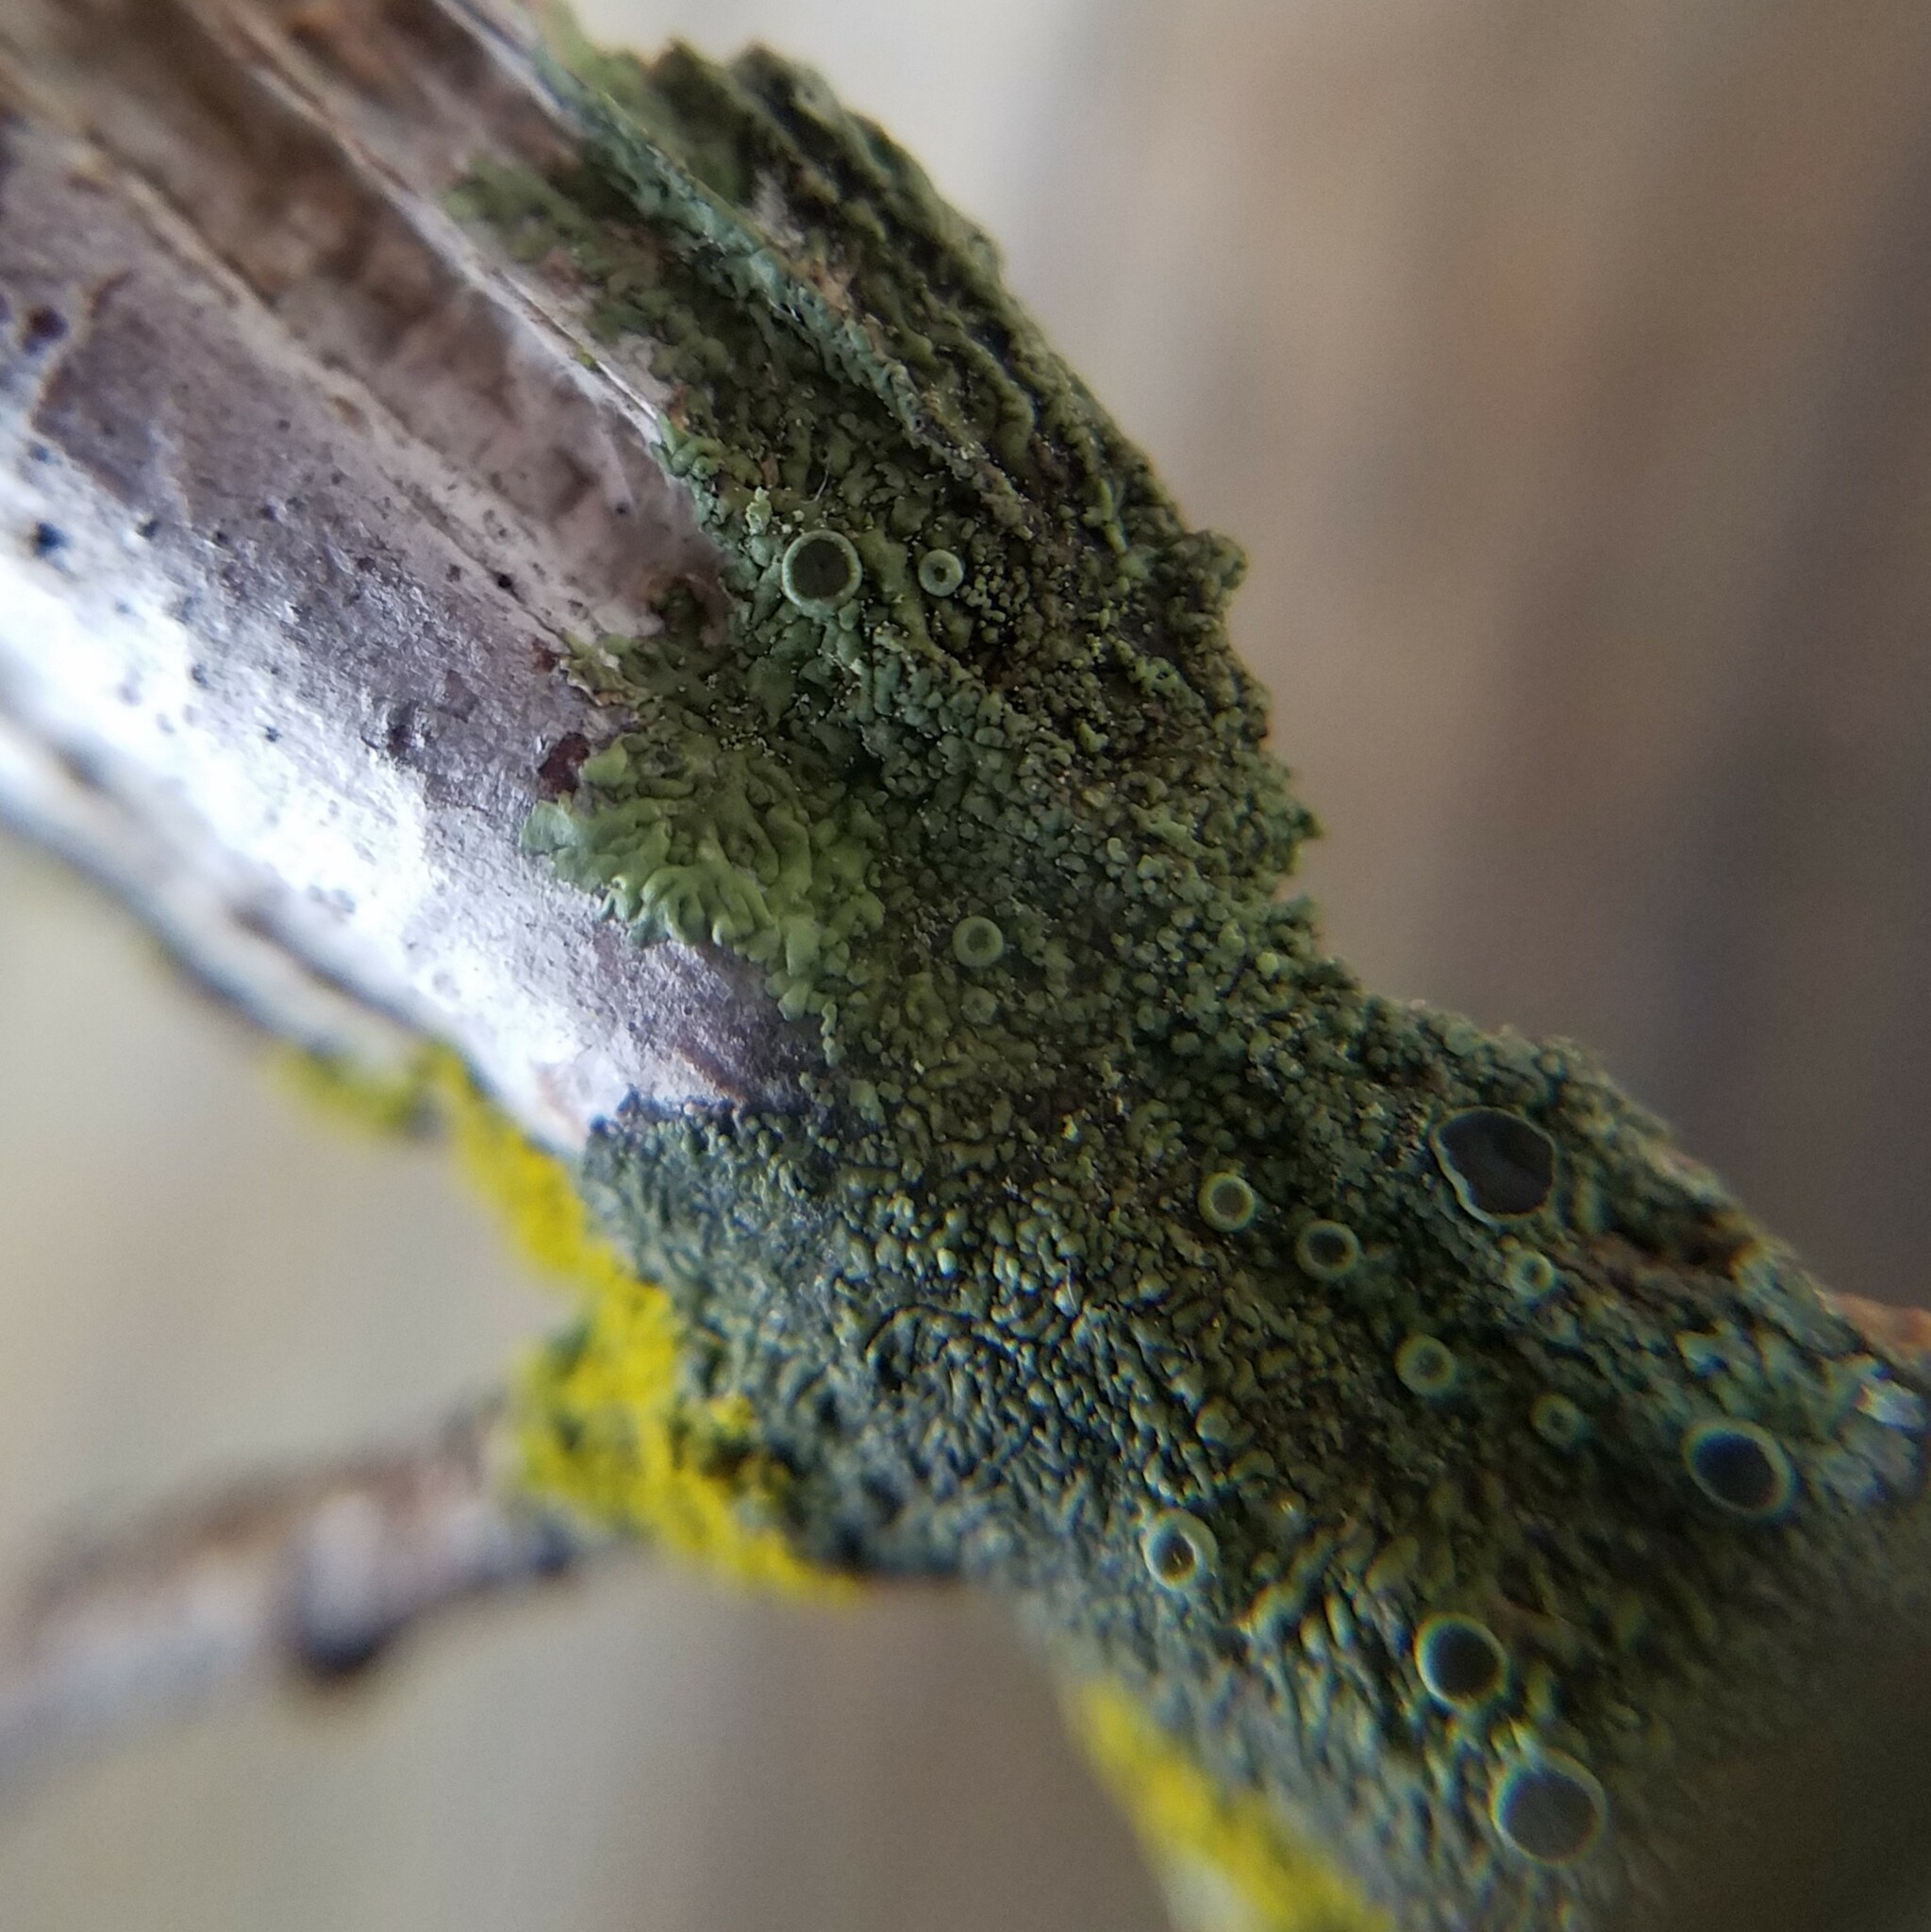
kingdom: Fungi
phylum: Ascomycota
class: Lecanoromycetes
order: Caliciales
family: Physciaceae
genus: Hyperphyscia
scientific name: Hyperphyscia syncolla
